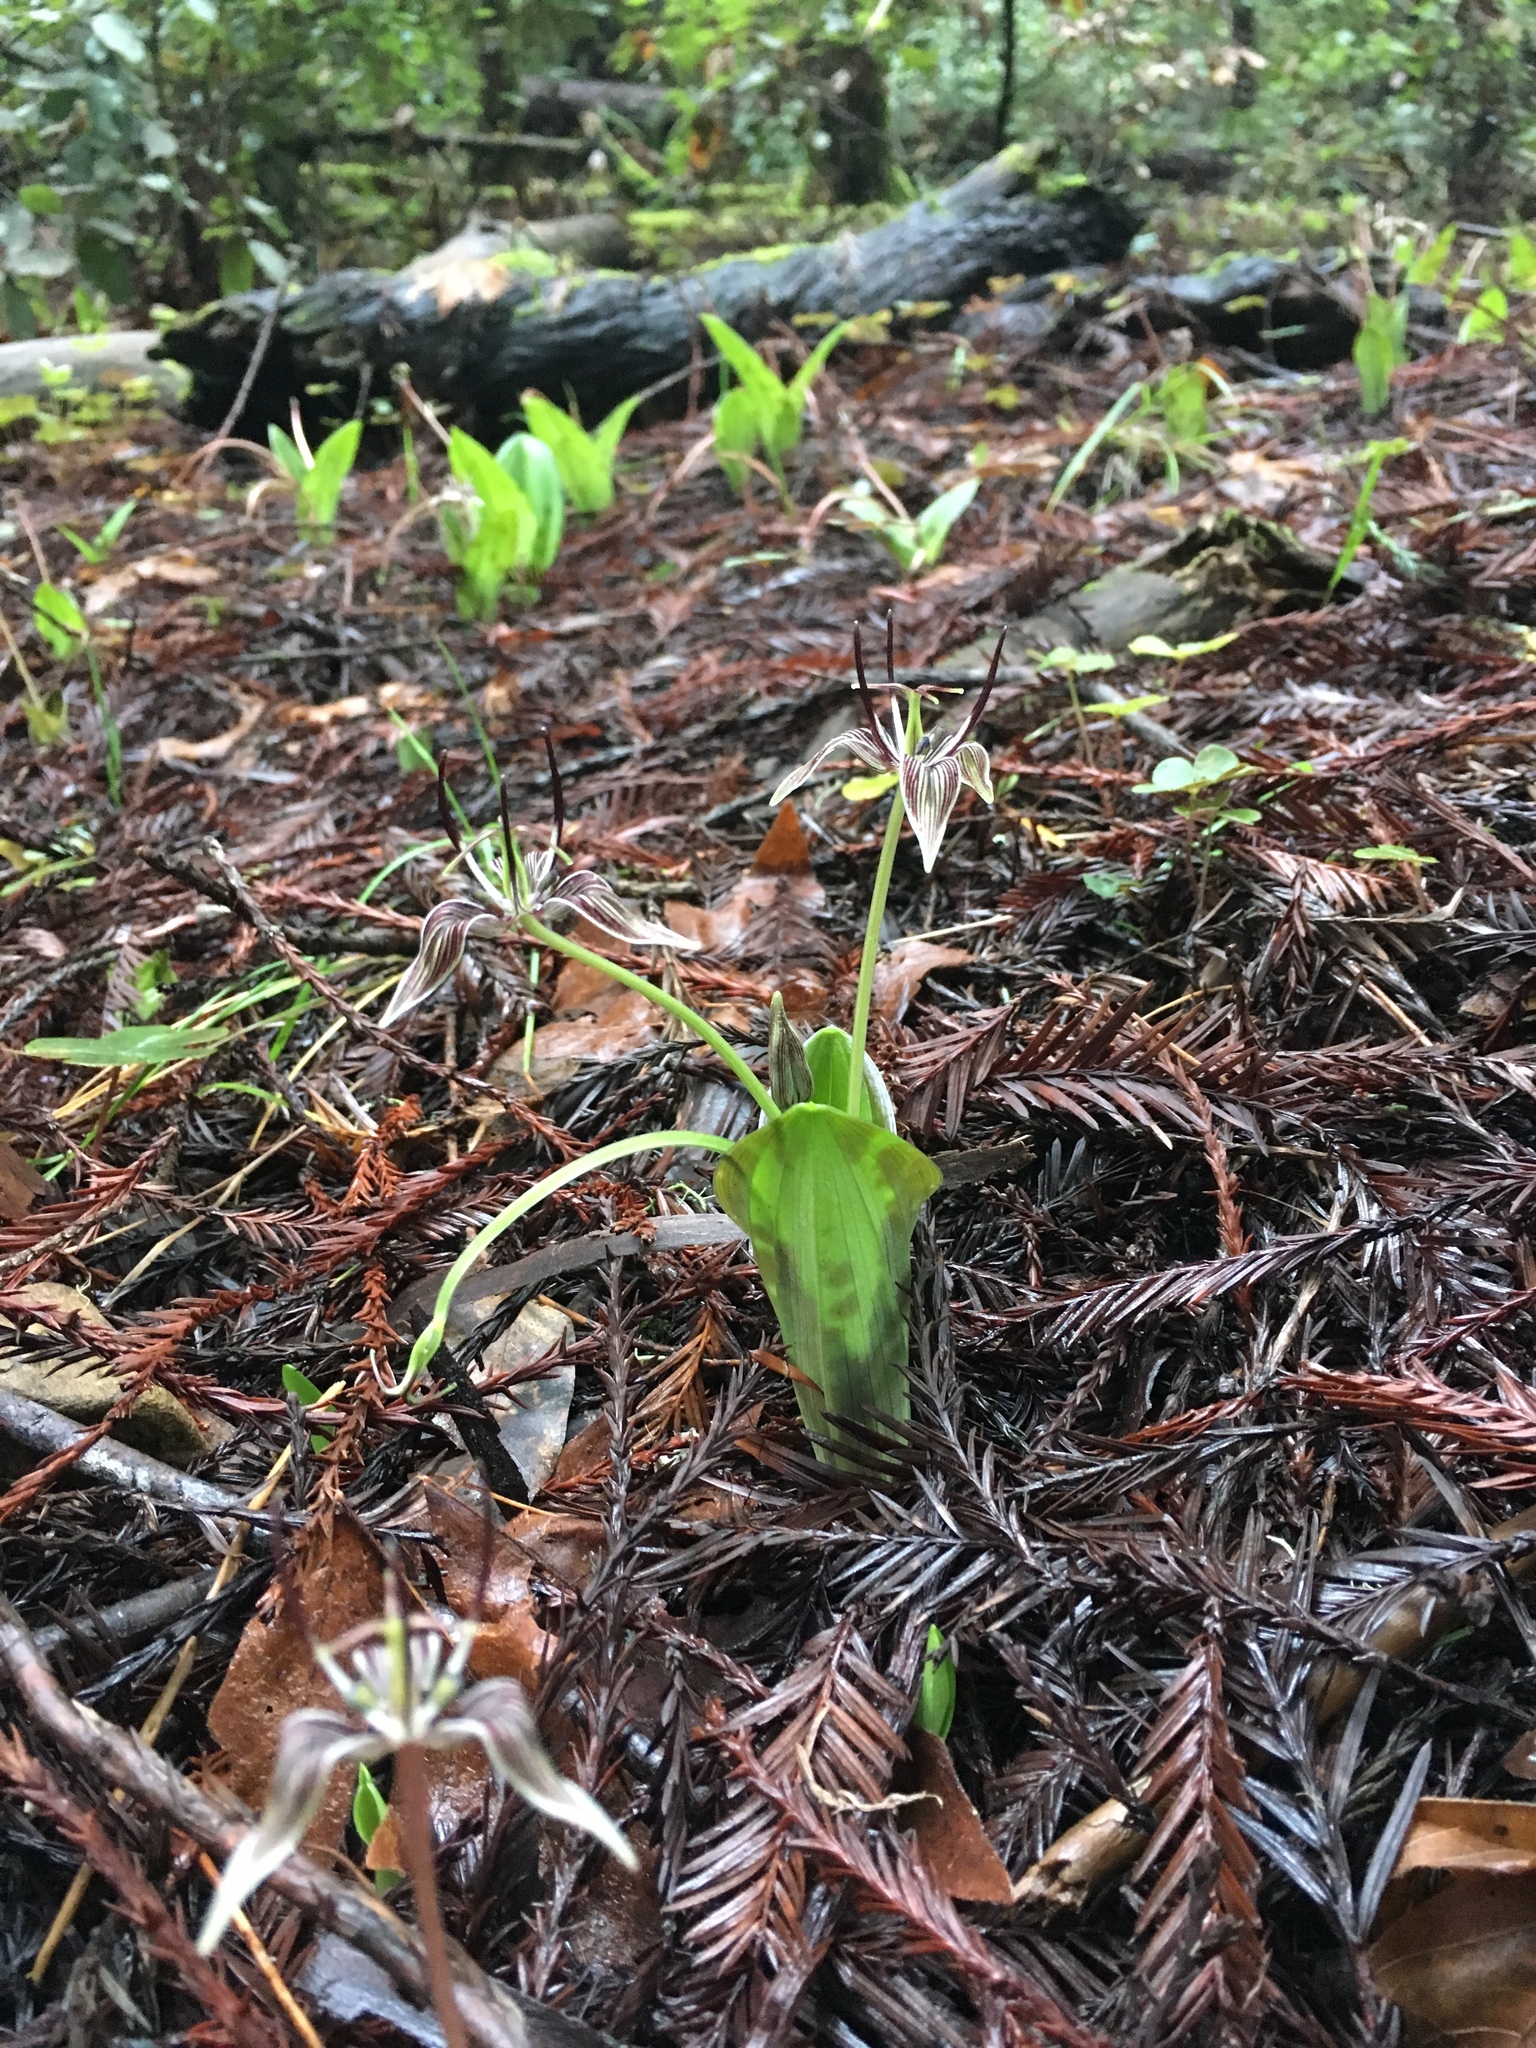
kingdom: Plantae
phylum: Tracheophyta
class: Liliopsida
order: Liliales
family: Liliaceae
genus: Scoliopus
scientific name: Scoliopus bigelovii
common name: Foetid adder's-tongue
